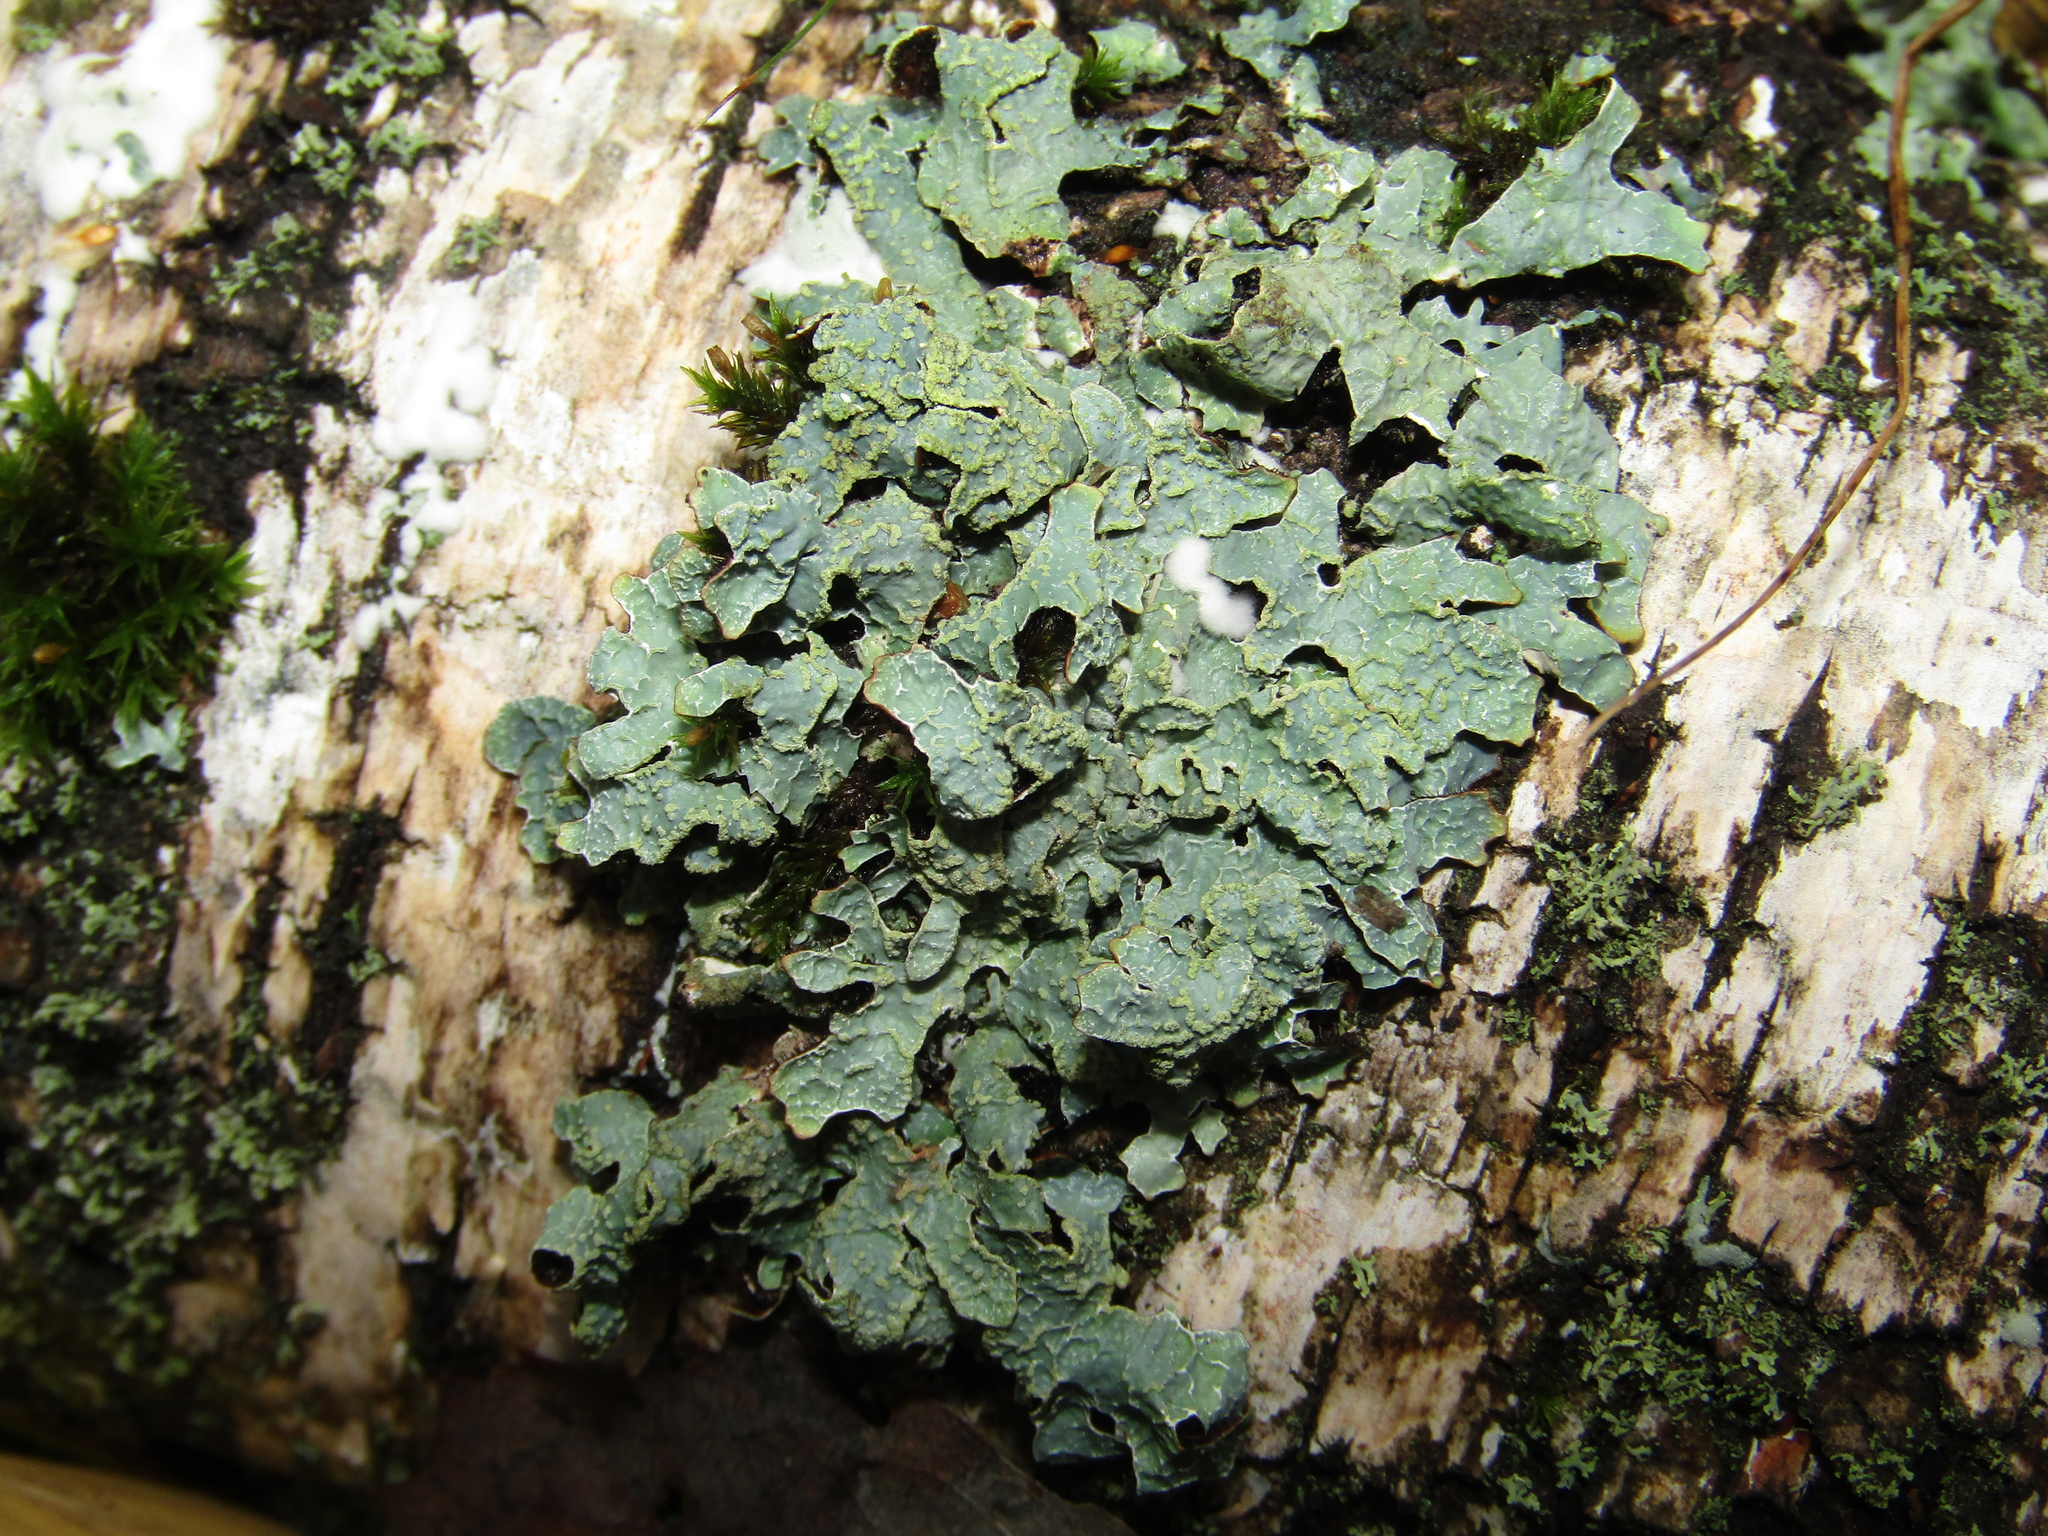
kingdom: Fungi
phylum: Ascomycota
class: Lecanoromycetes
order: Lecanorales
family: Parmeliaceae
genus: Parmelia
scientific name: Parmelia sulcata
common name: Netted shield lichen
